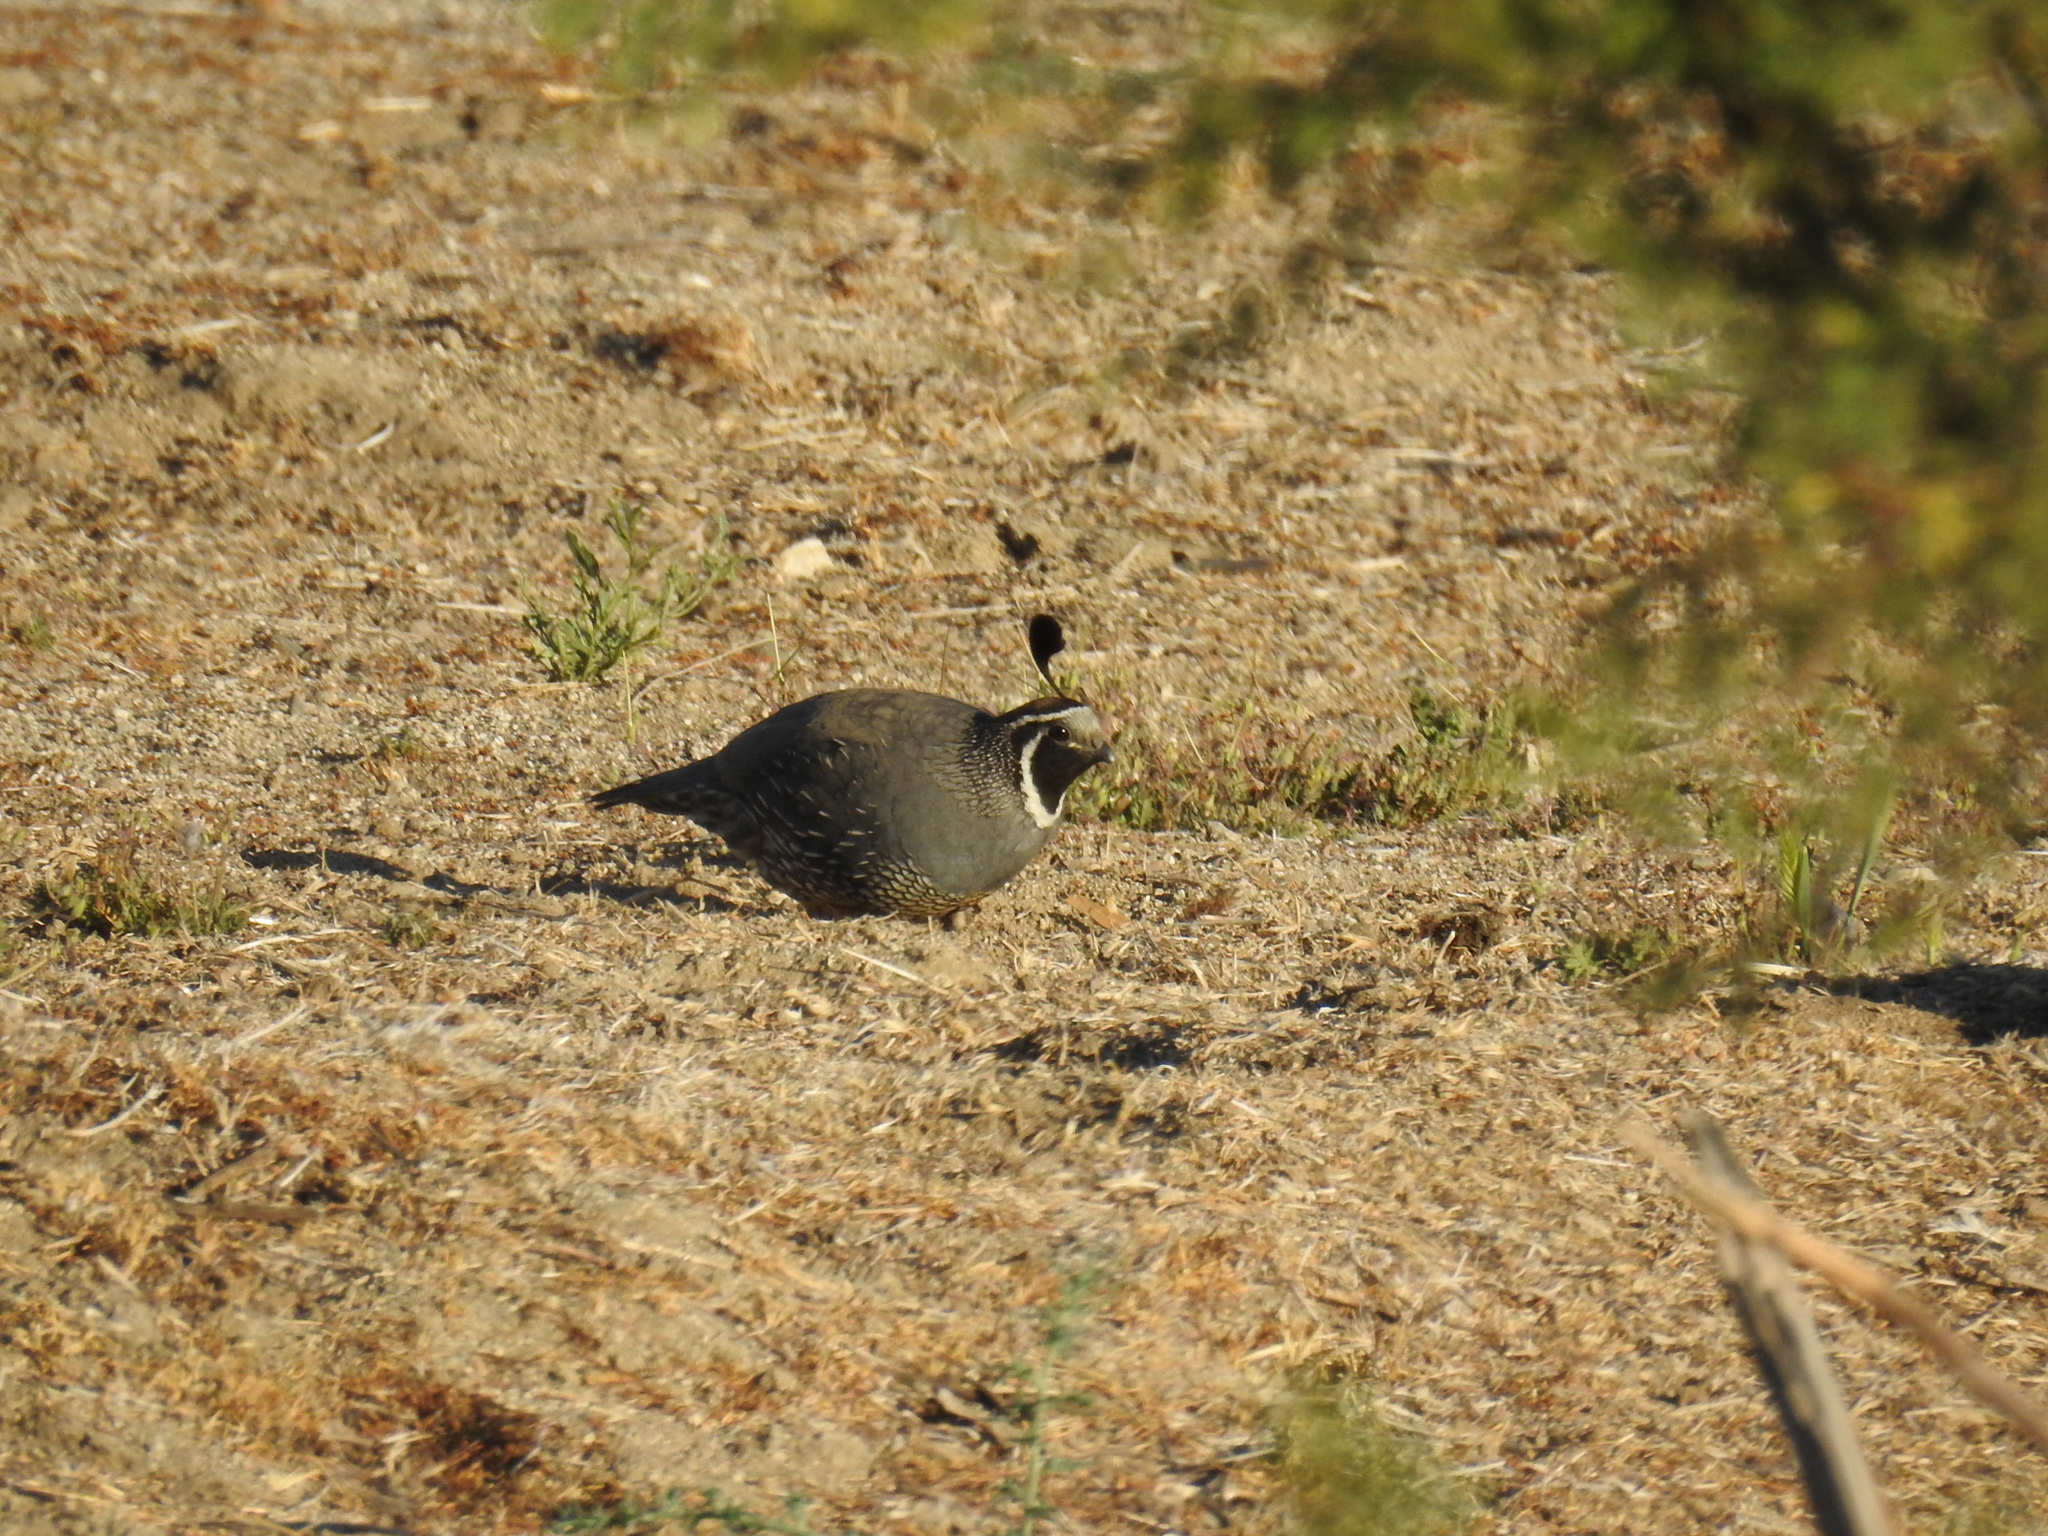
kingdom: Animalia
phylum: Chordata
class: Aves
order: Galliformes
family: Odontophoridae
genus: Callipepla
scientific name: Callipepla californica
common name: California quail
